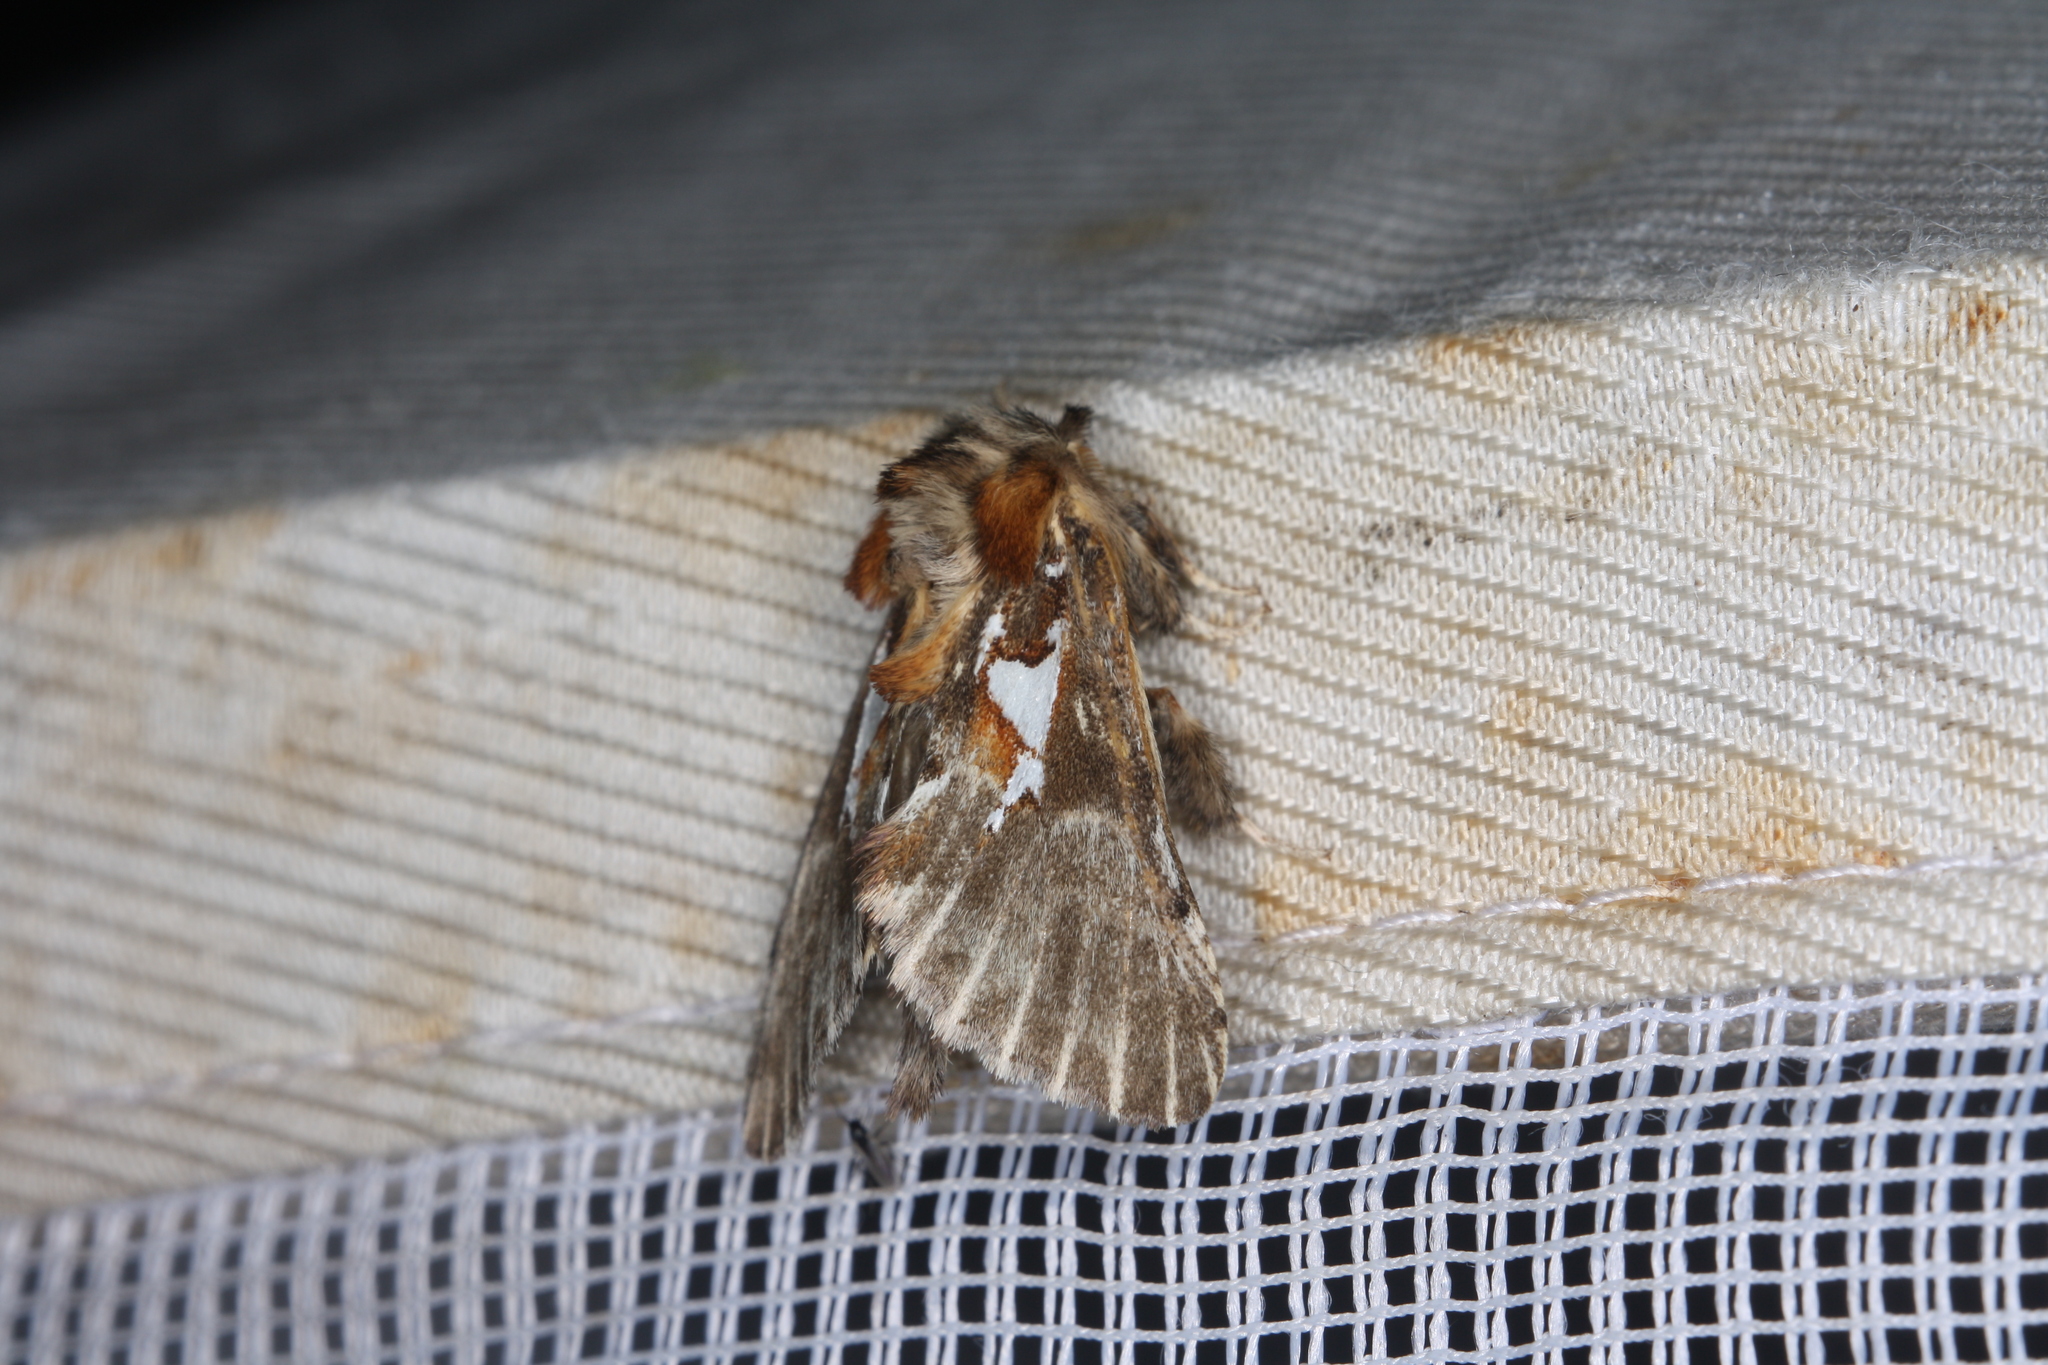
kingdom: Animalia
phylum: Arthropoda
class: Insecta
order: Lepidoptera
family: Notodontidae
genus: Spatalia
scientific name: Spatalia argentina
